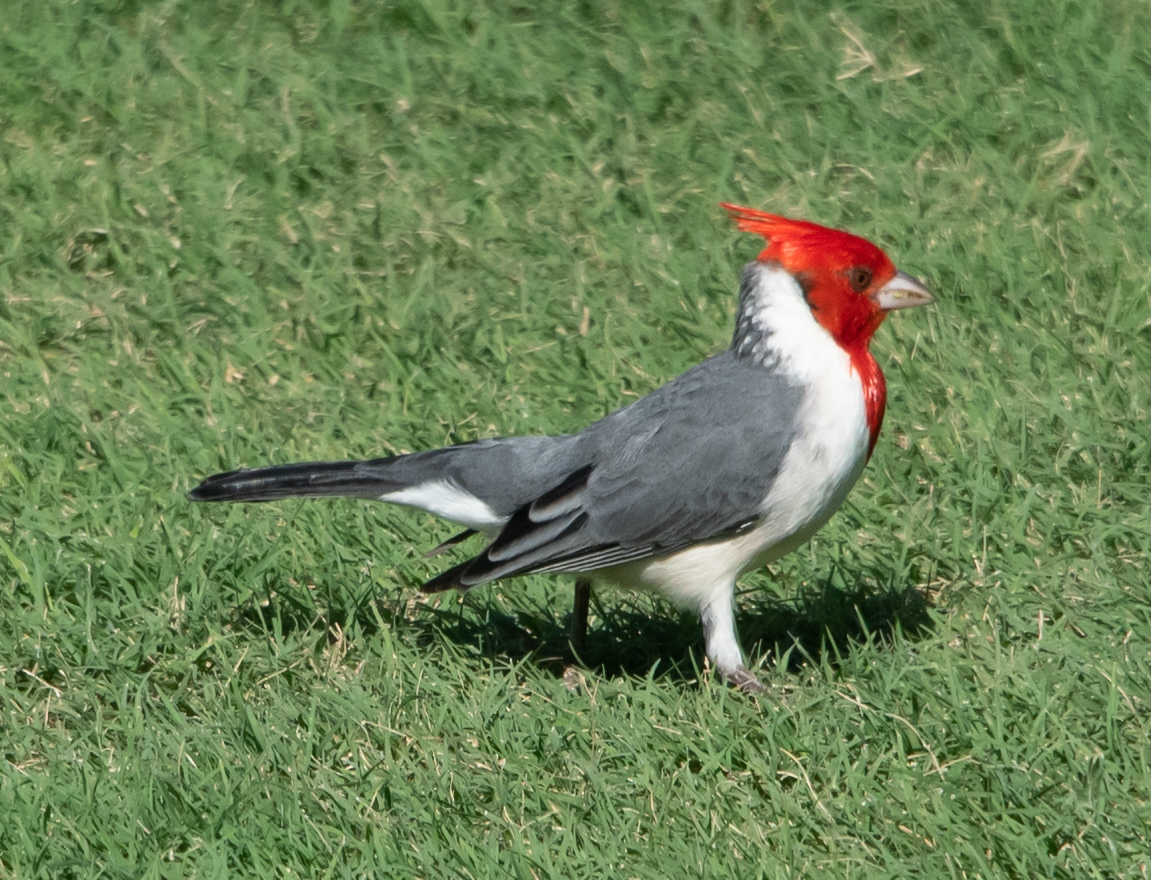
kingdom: Animalia
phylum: Chordata
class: Aves
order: Passeriformes
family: Thraupidae
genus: Paroaria
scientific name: Paroaria coronata
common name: Red-crested cardinal
